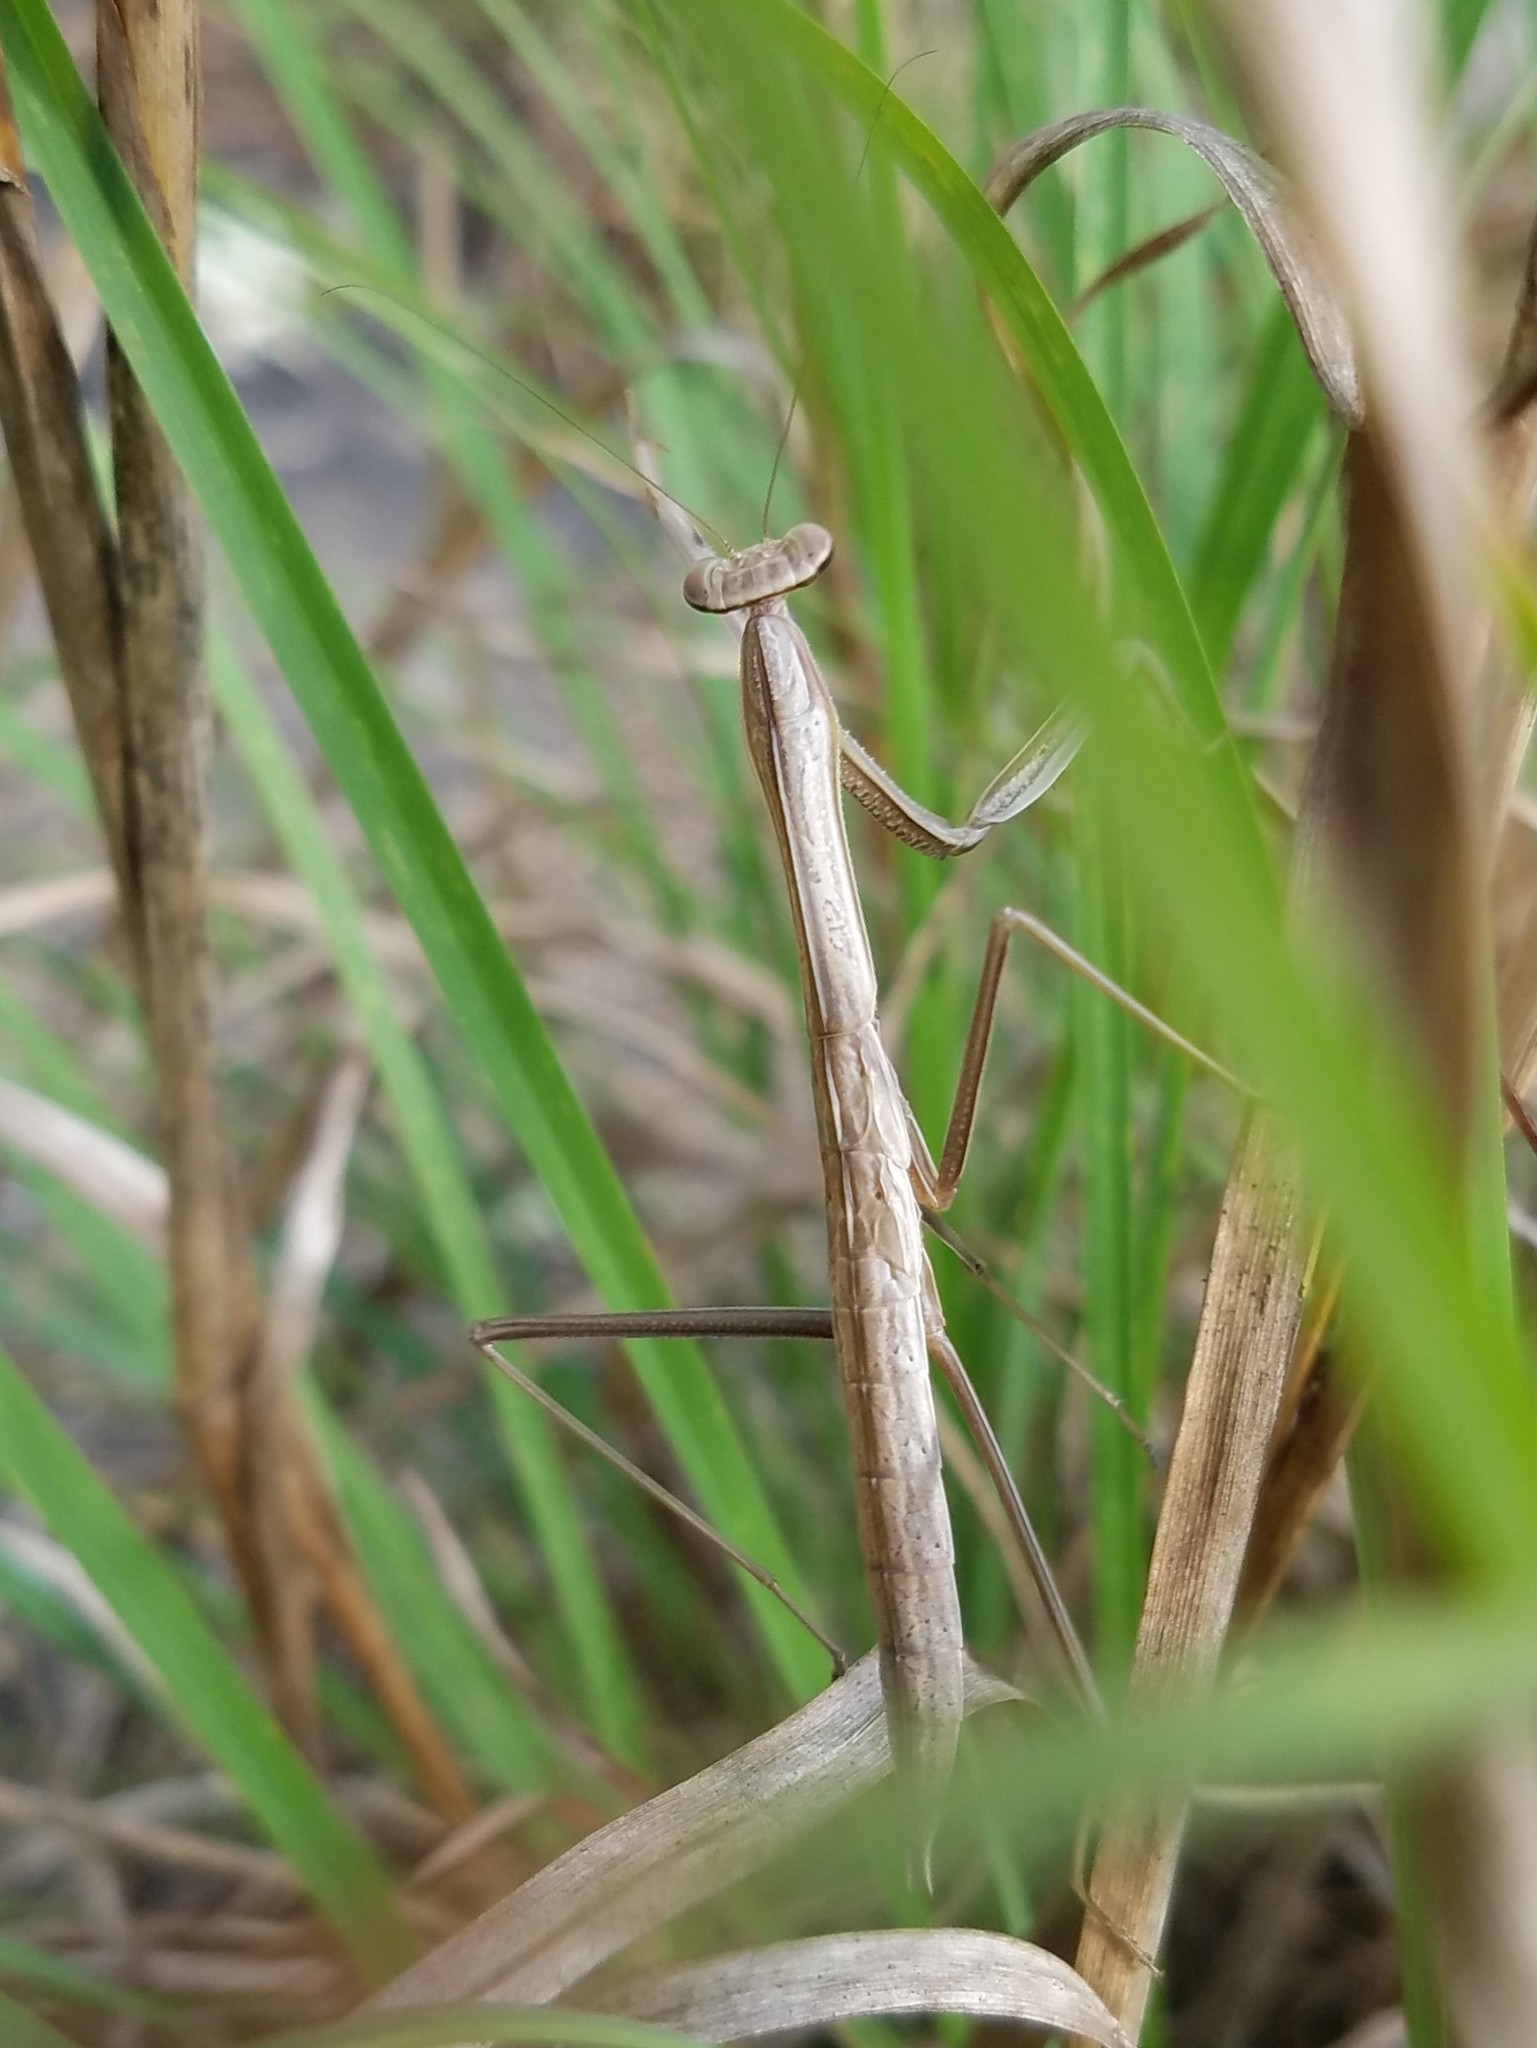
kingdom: Animalia
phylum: Arthropoda
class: Insecta
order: Mantodea
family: Mantidae
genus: Tenodera
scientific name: Tenodera sinensis
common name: Chinese mantis
